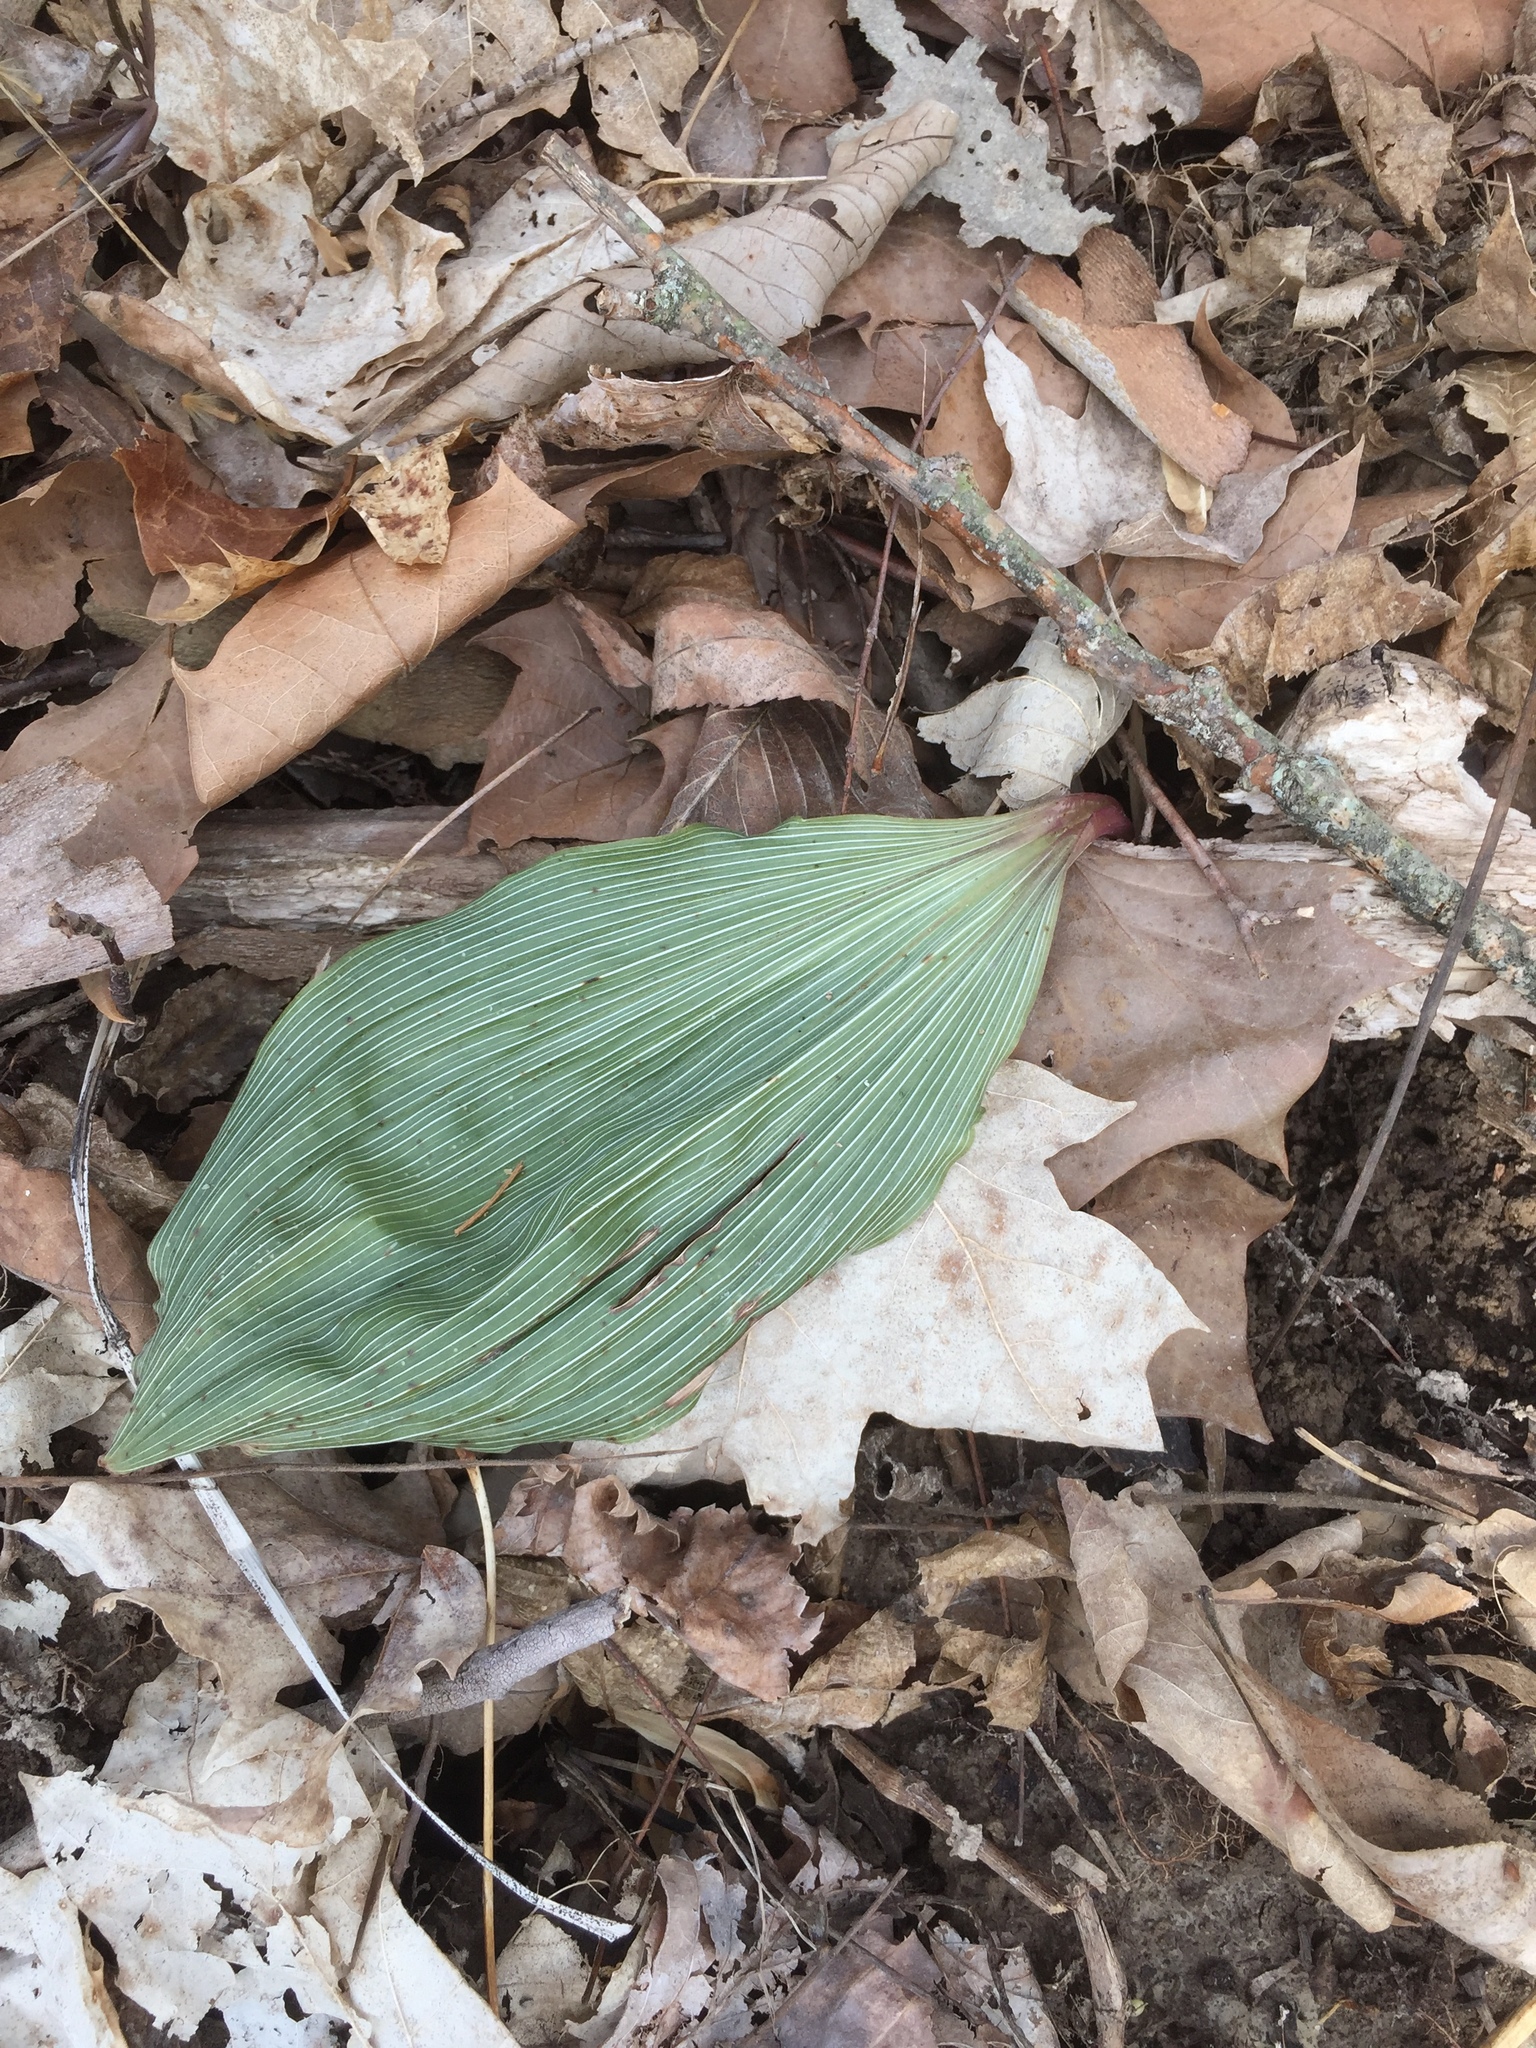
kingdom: Plantae
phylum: Tracheophyta
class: Liliopsida
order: Asparagales
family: Orchidaceae
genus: Aplectrum
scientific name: Aplectrum hyemale
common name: Adam-and-eve
